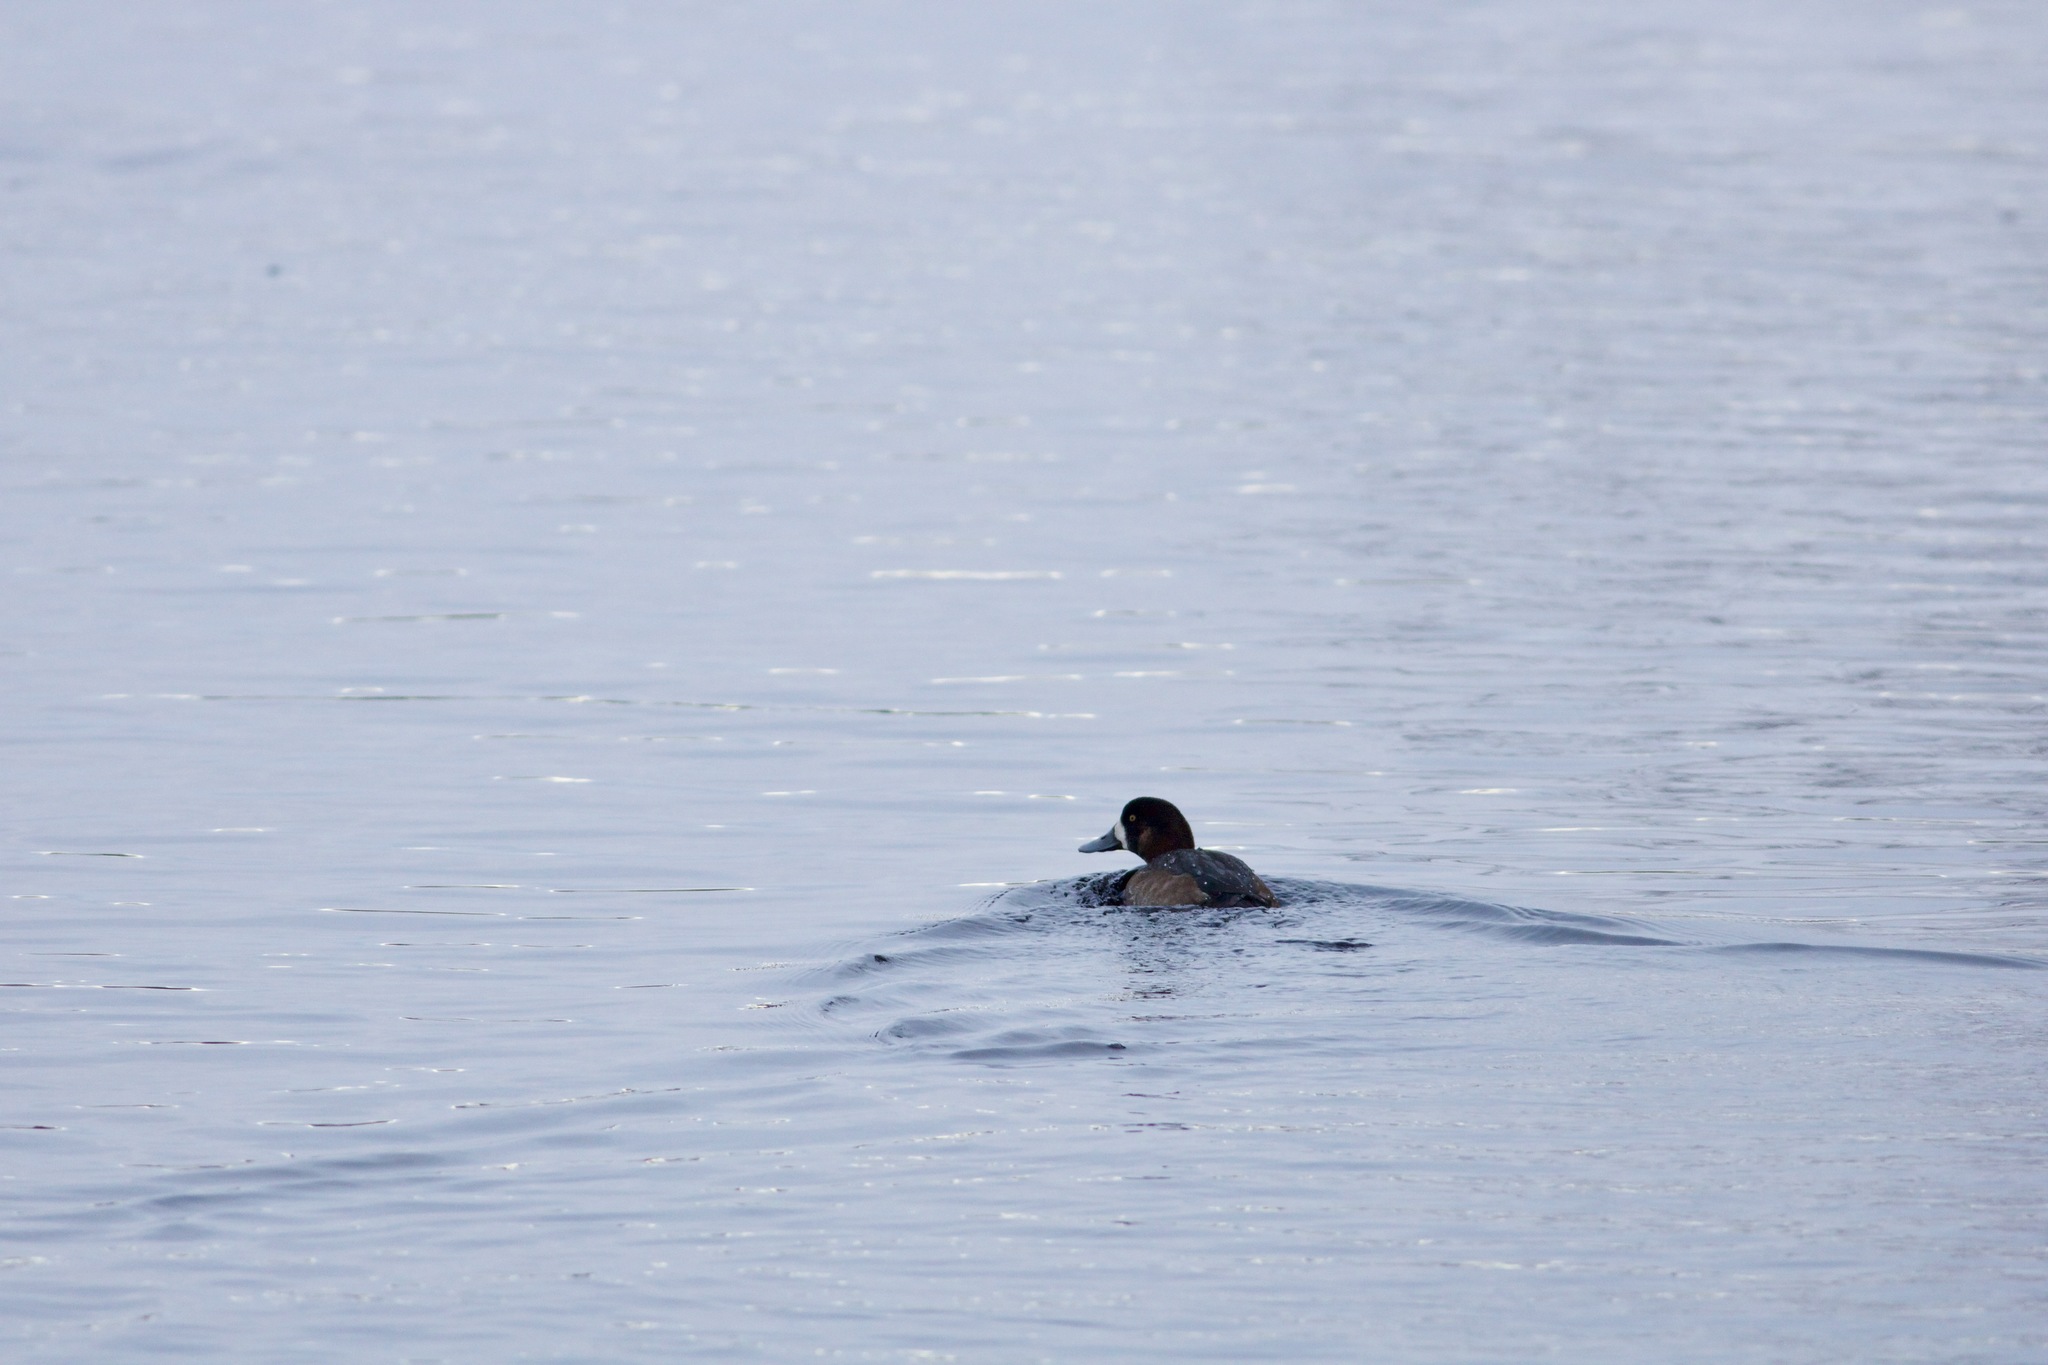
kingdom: Animalia
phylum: Chordata
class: Aves
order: Anseriformes
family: Anatidae
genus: Aythya
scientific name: Aythya marila
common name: Greater scaup
